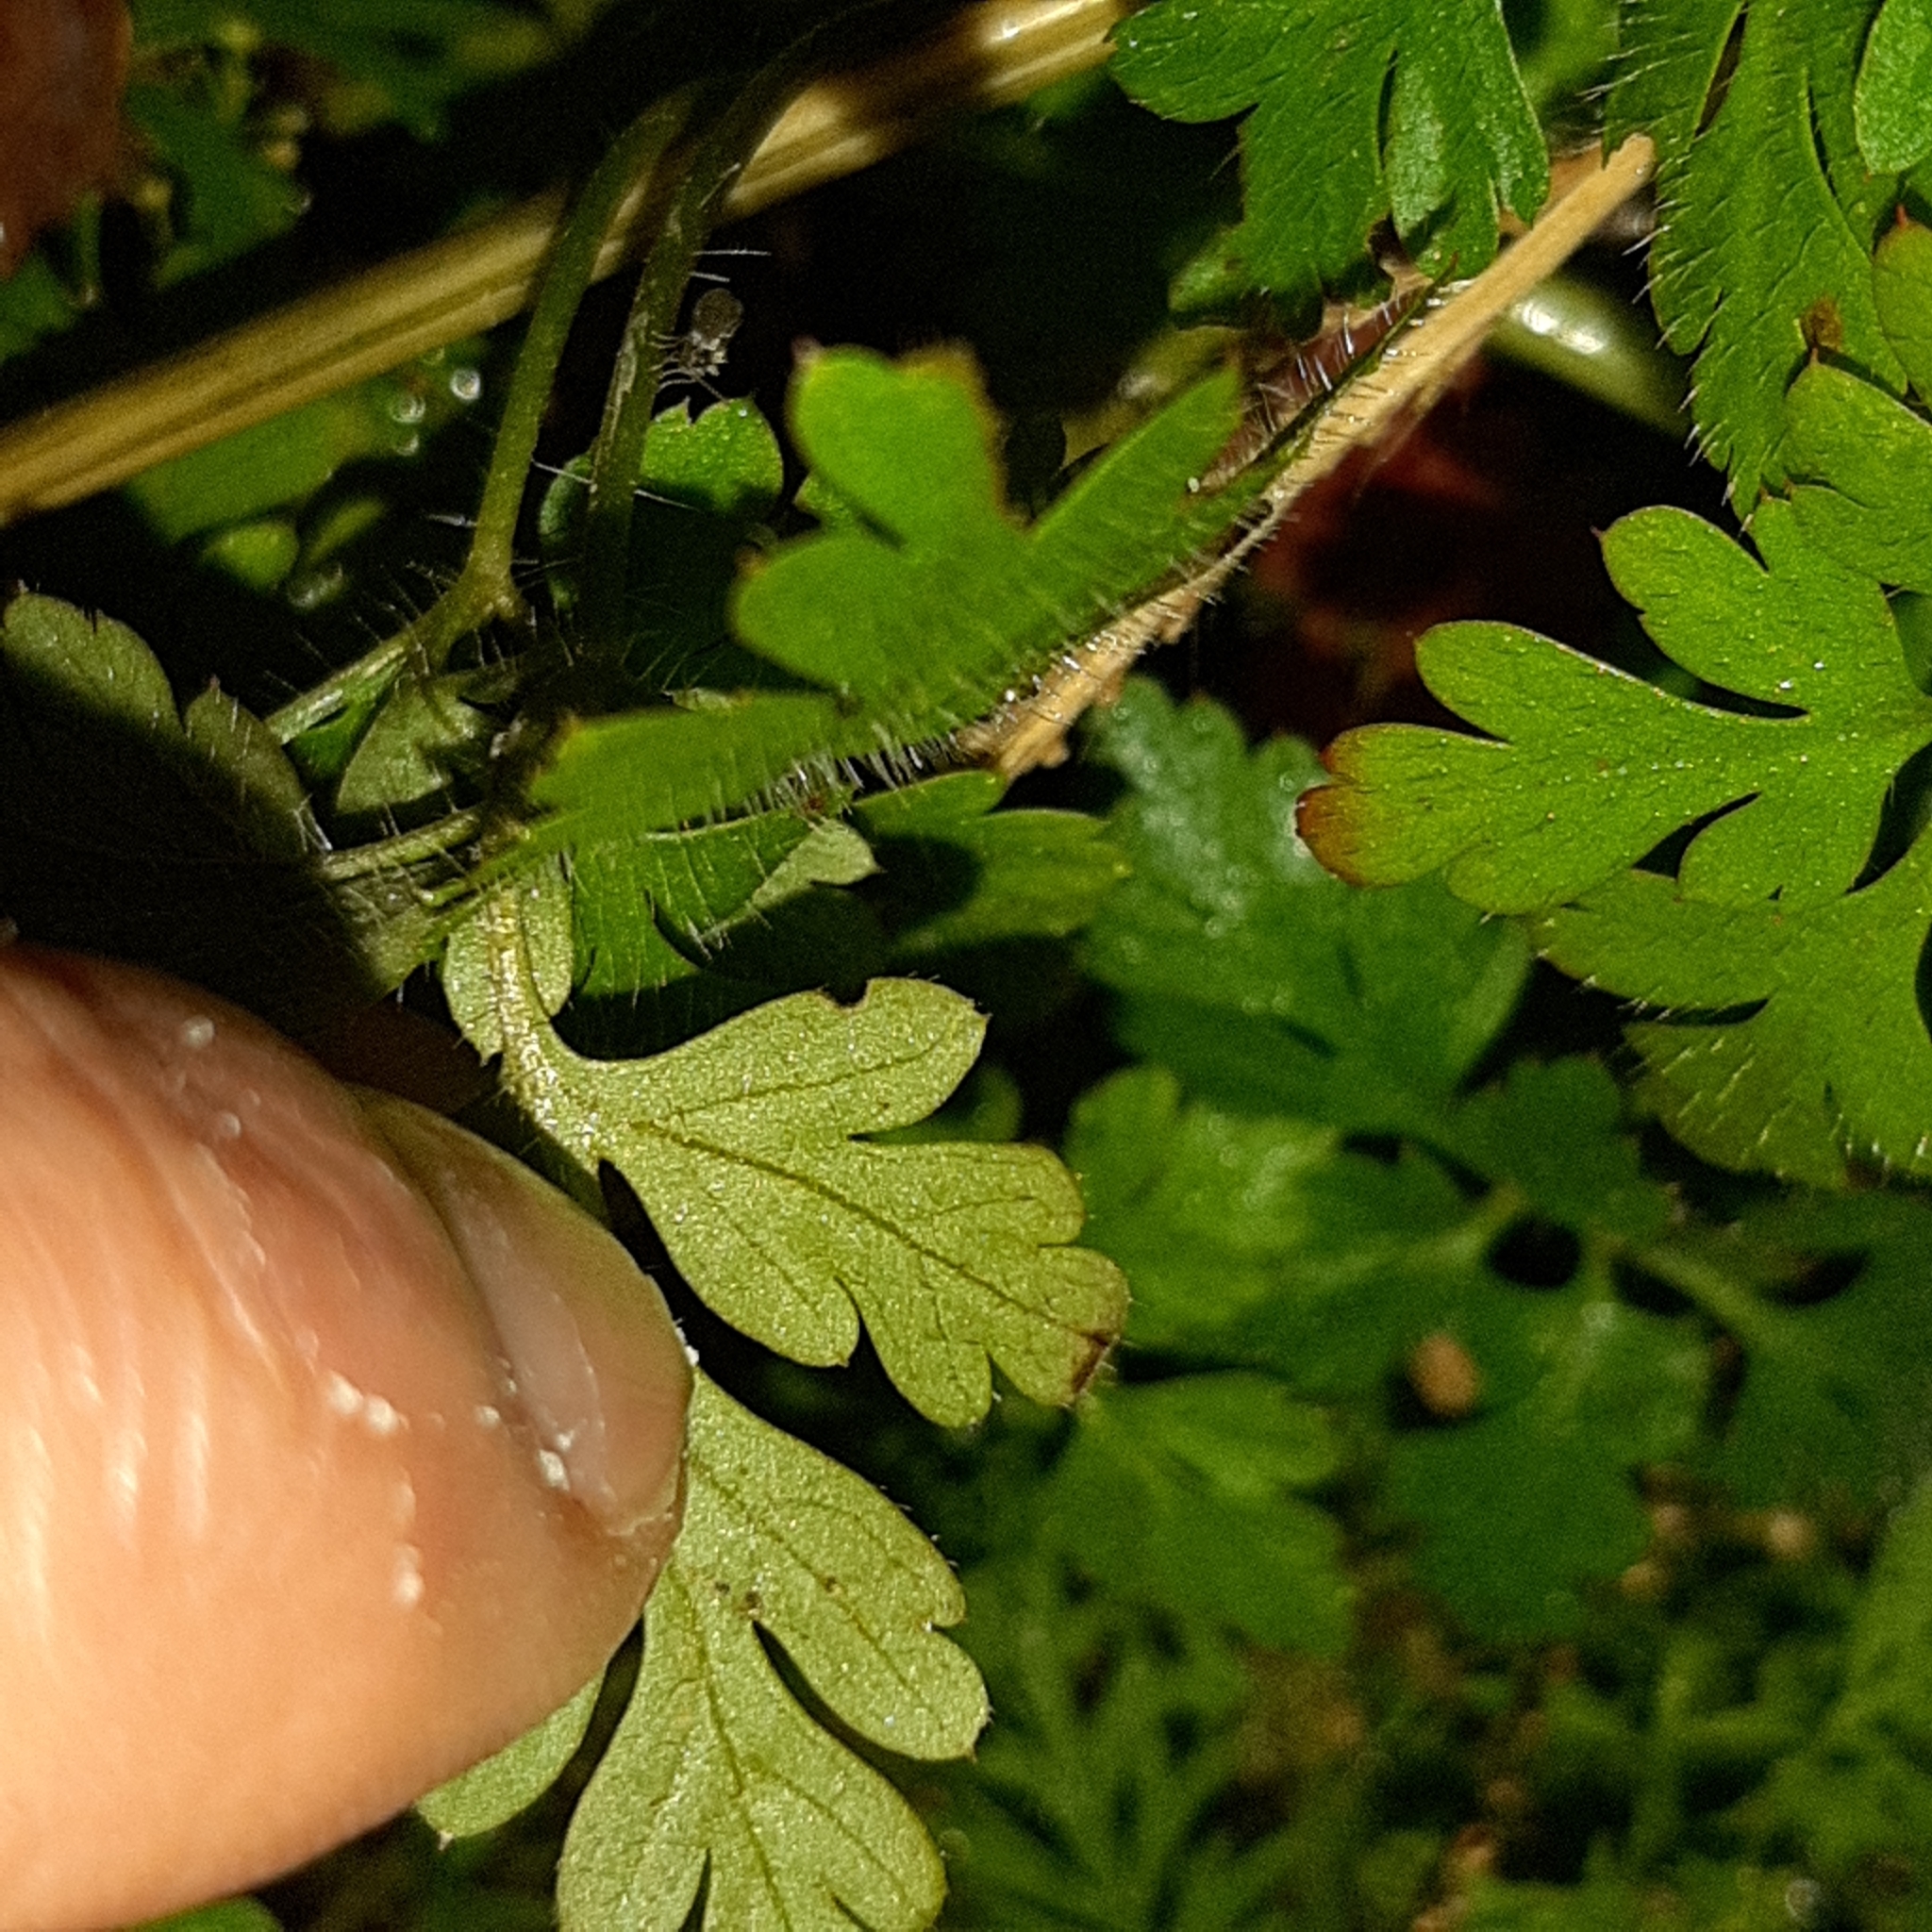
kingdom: Plantae
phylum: Tracheophyta
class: Magnoliopsida
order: Geraniales
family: Geraniaceae
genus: Geranium
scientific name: Geranium robertianum
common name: Herb-robert
